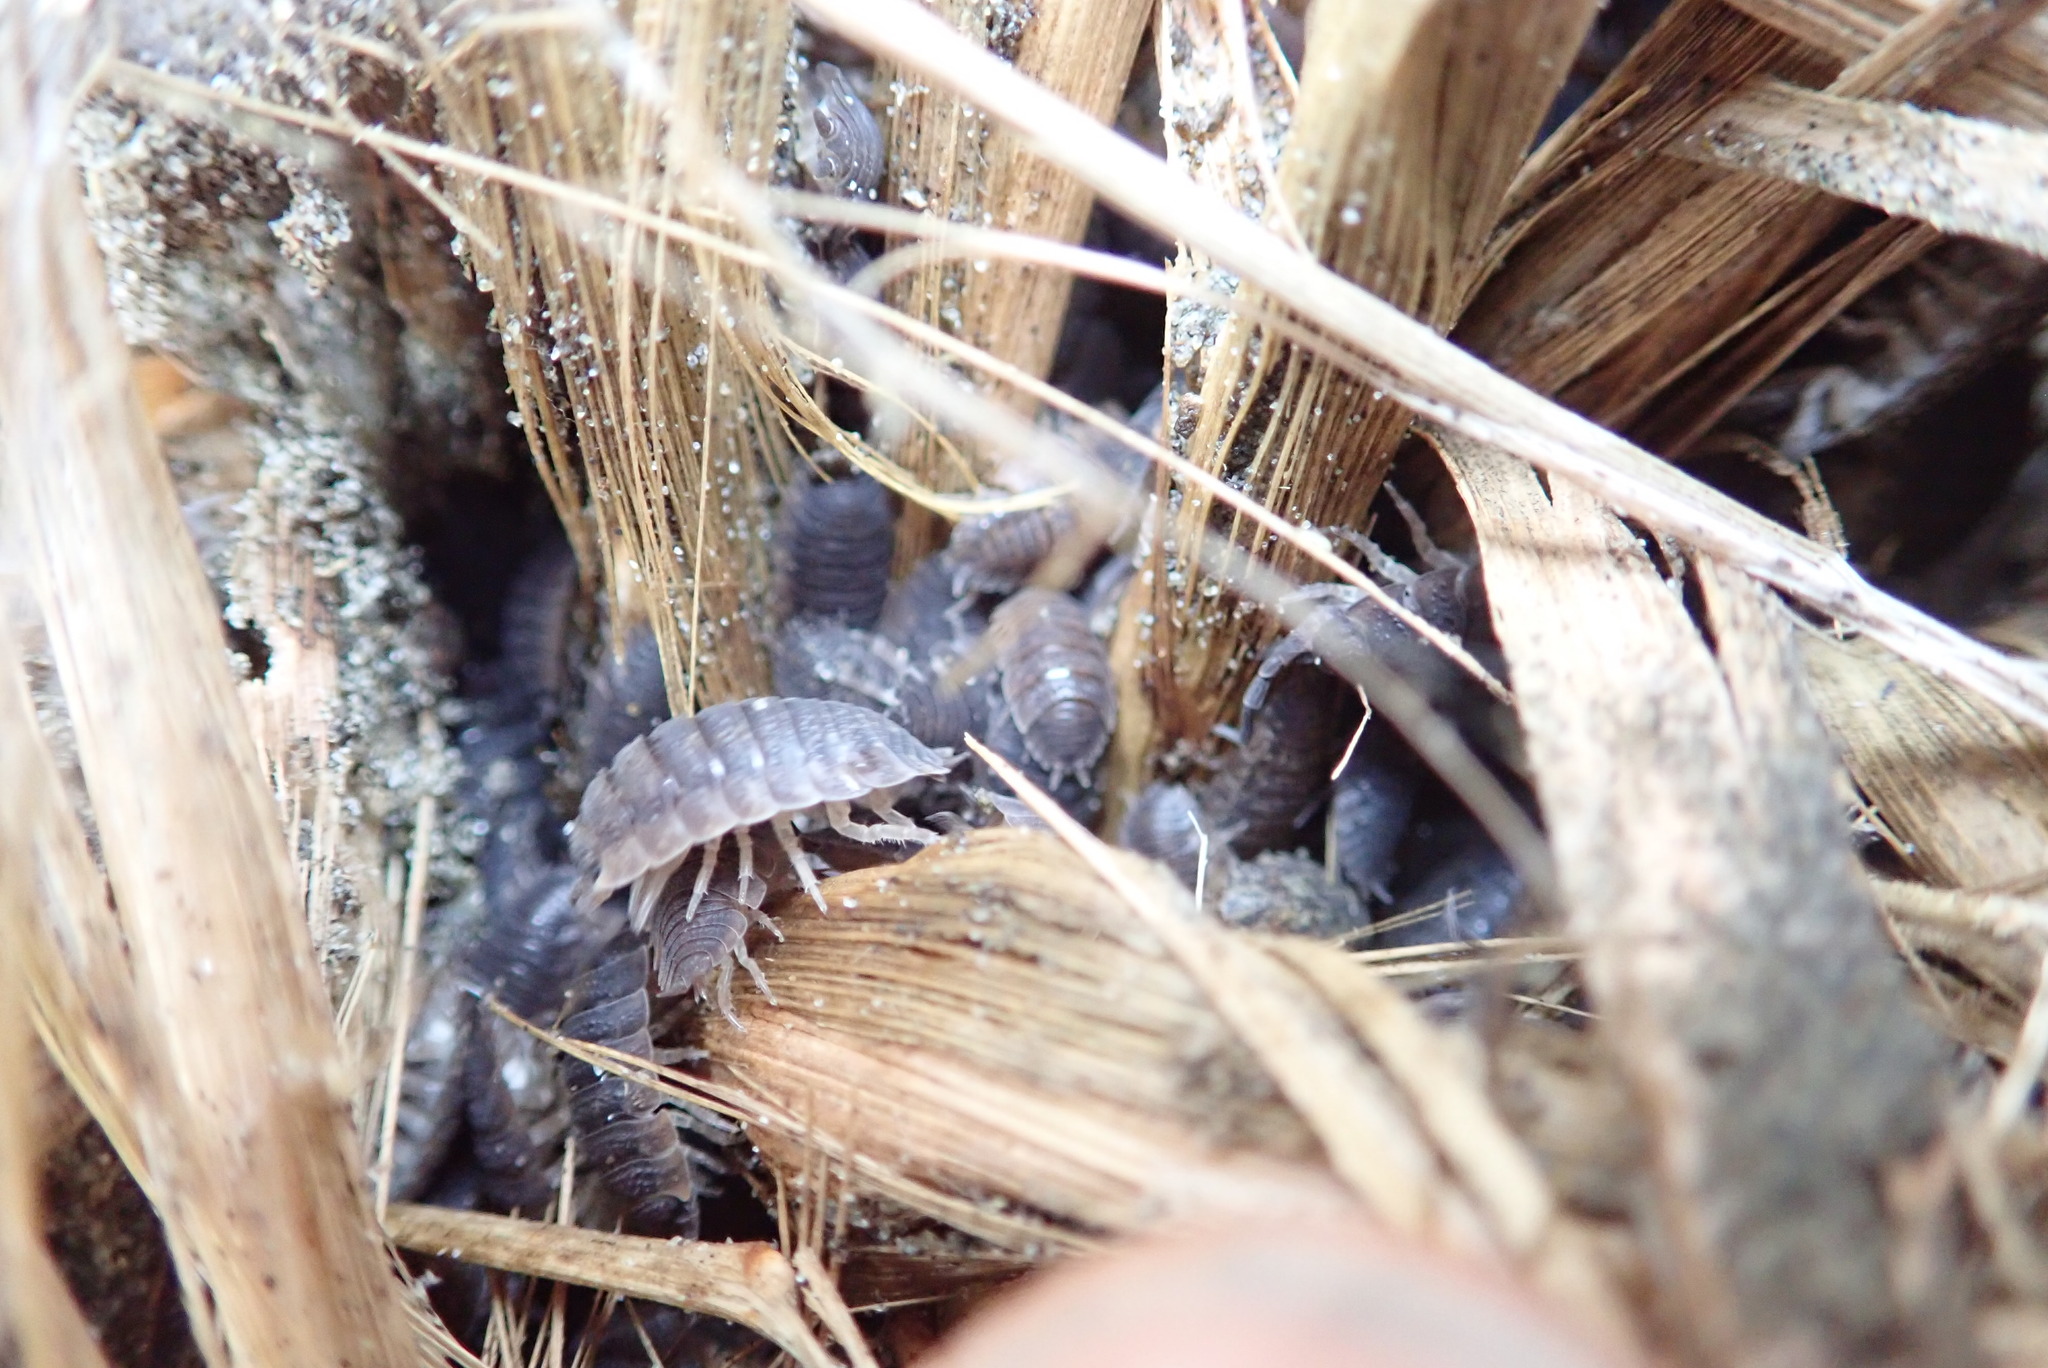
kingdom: Animalia
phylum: Arthropoda
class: Malacostraca
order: Isopoda
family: Porcellionidae
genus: Porcellio
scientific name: Porcellio scaber
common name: Common rough woodlouse
